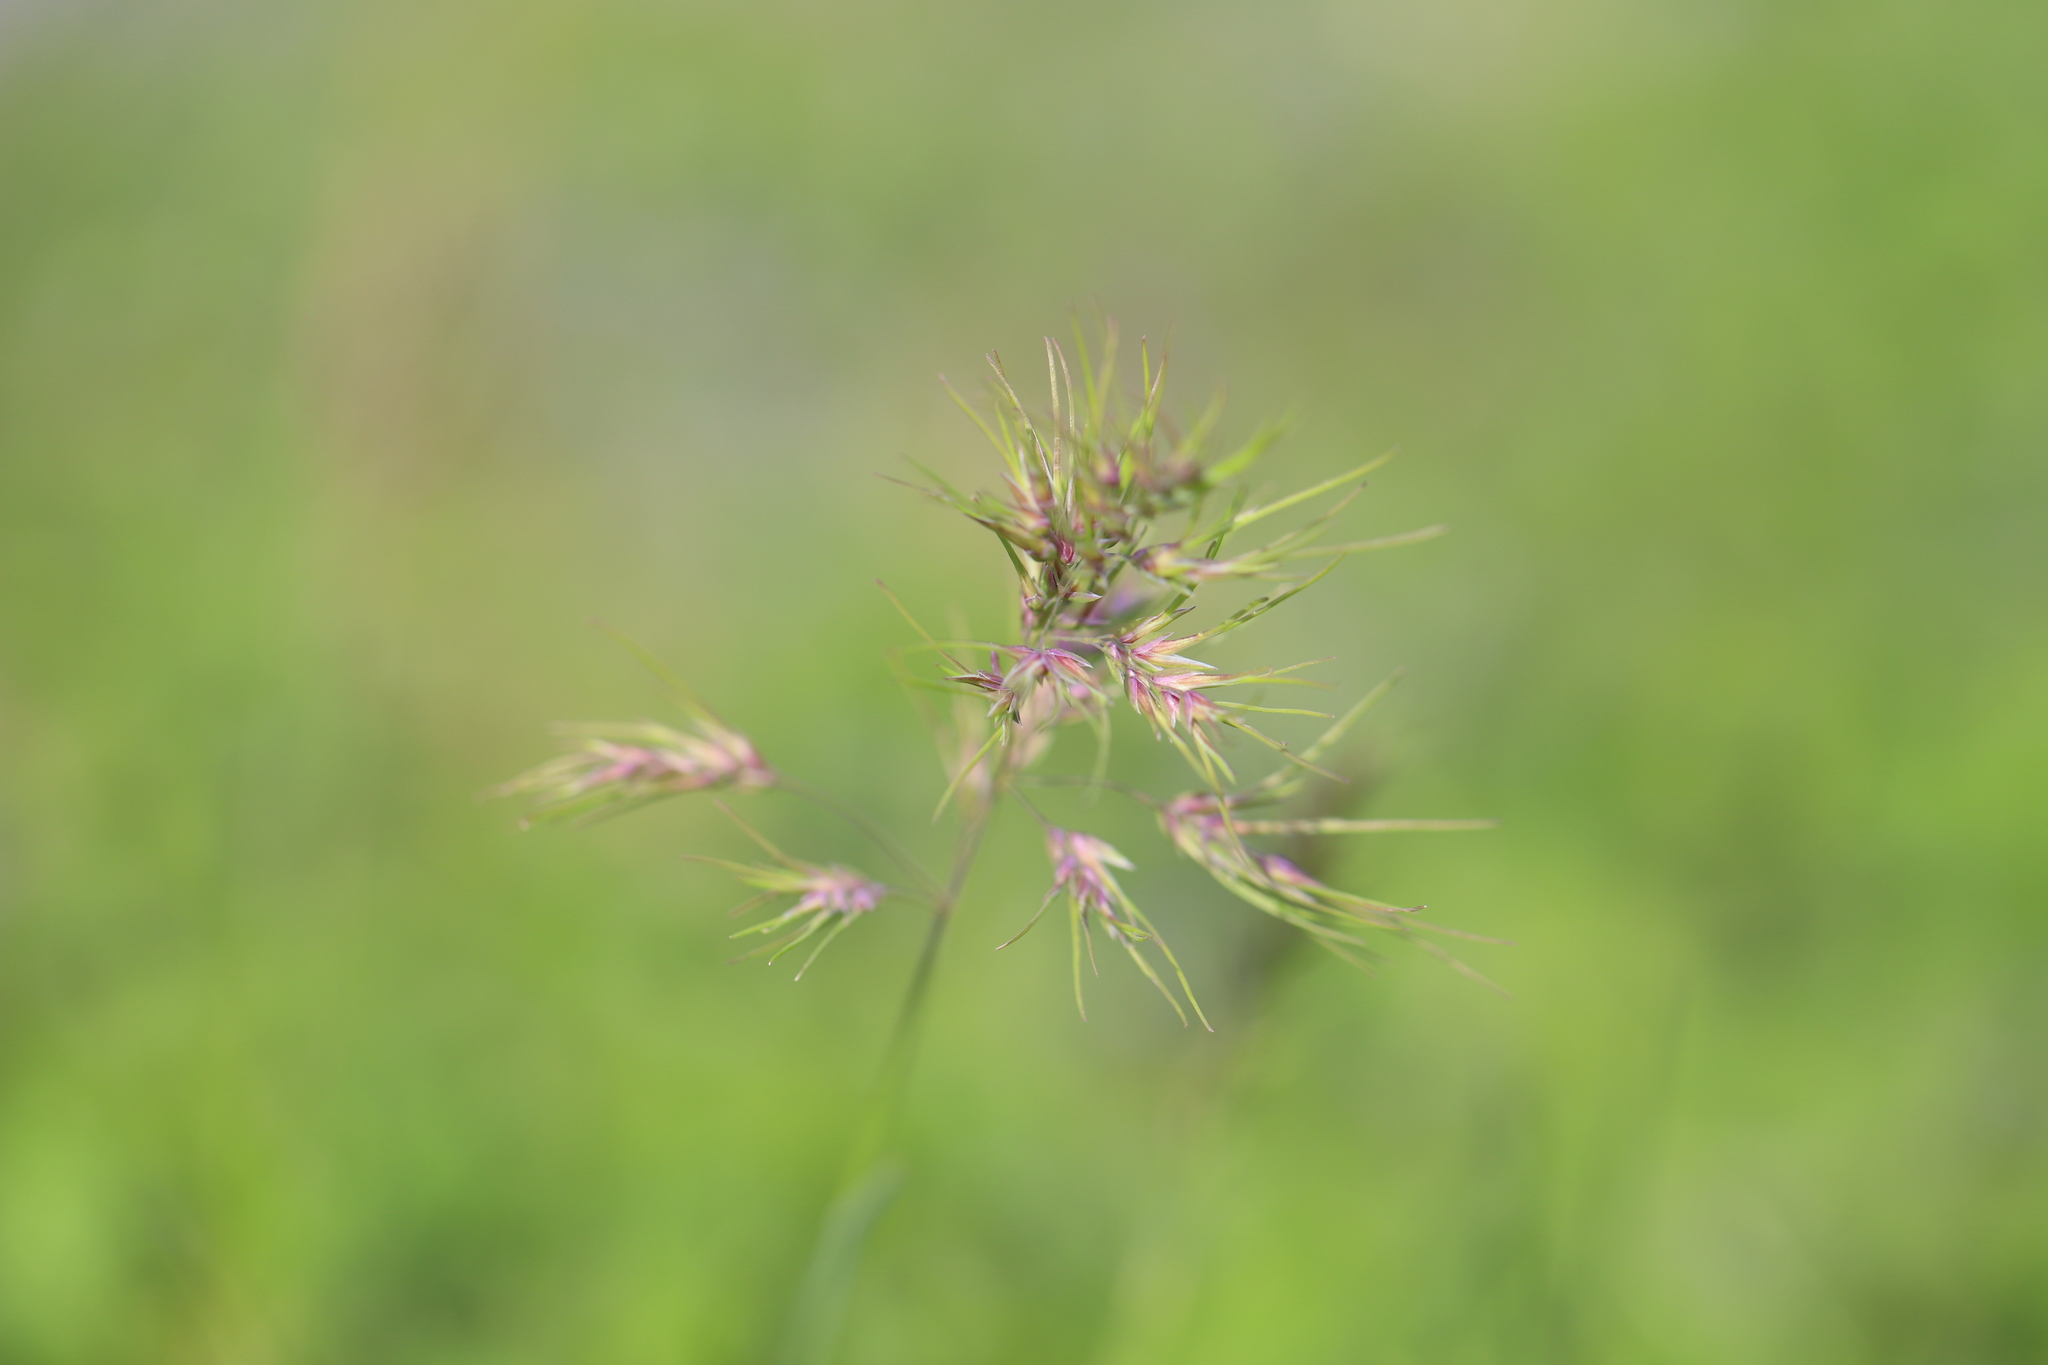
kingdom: Plantae
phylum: Tracheophyta
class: Liliopsida
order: Poales
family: Poaceae
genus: Poa
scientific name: Poa bulbosa
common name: Bulbous bluegrass
